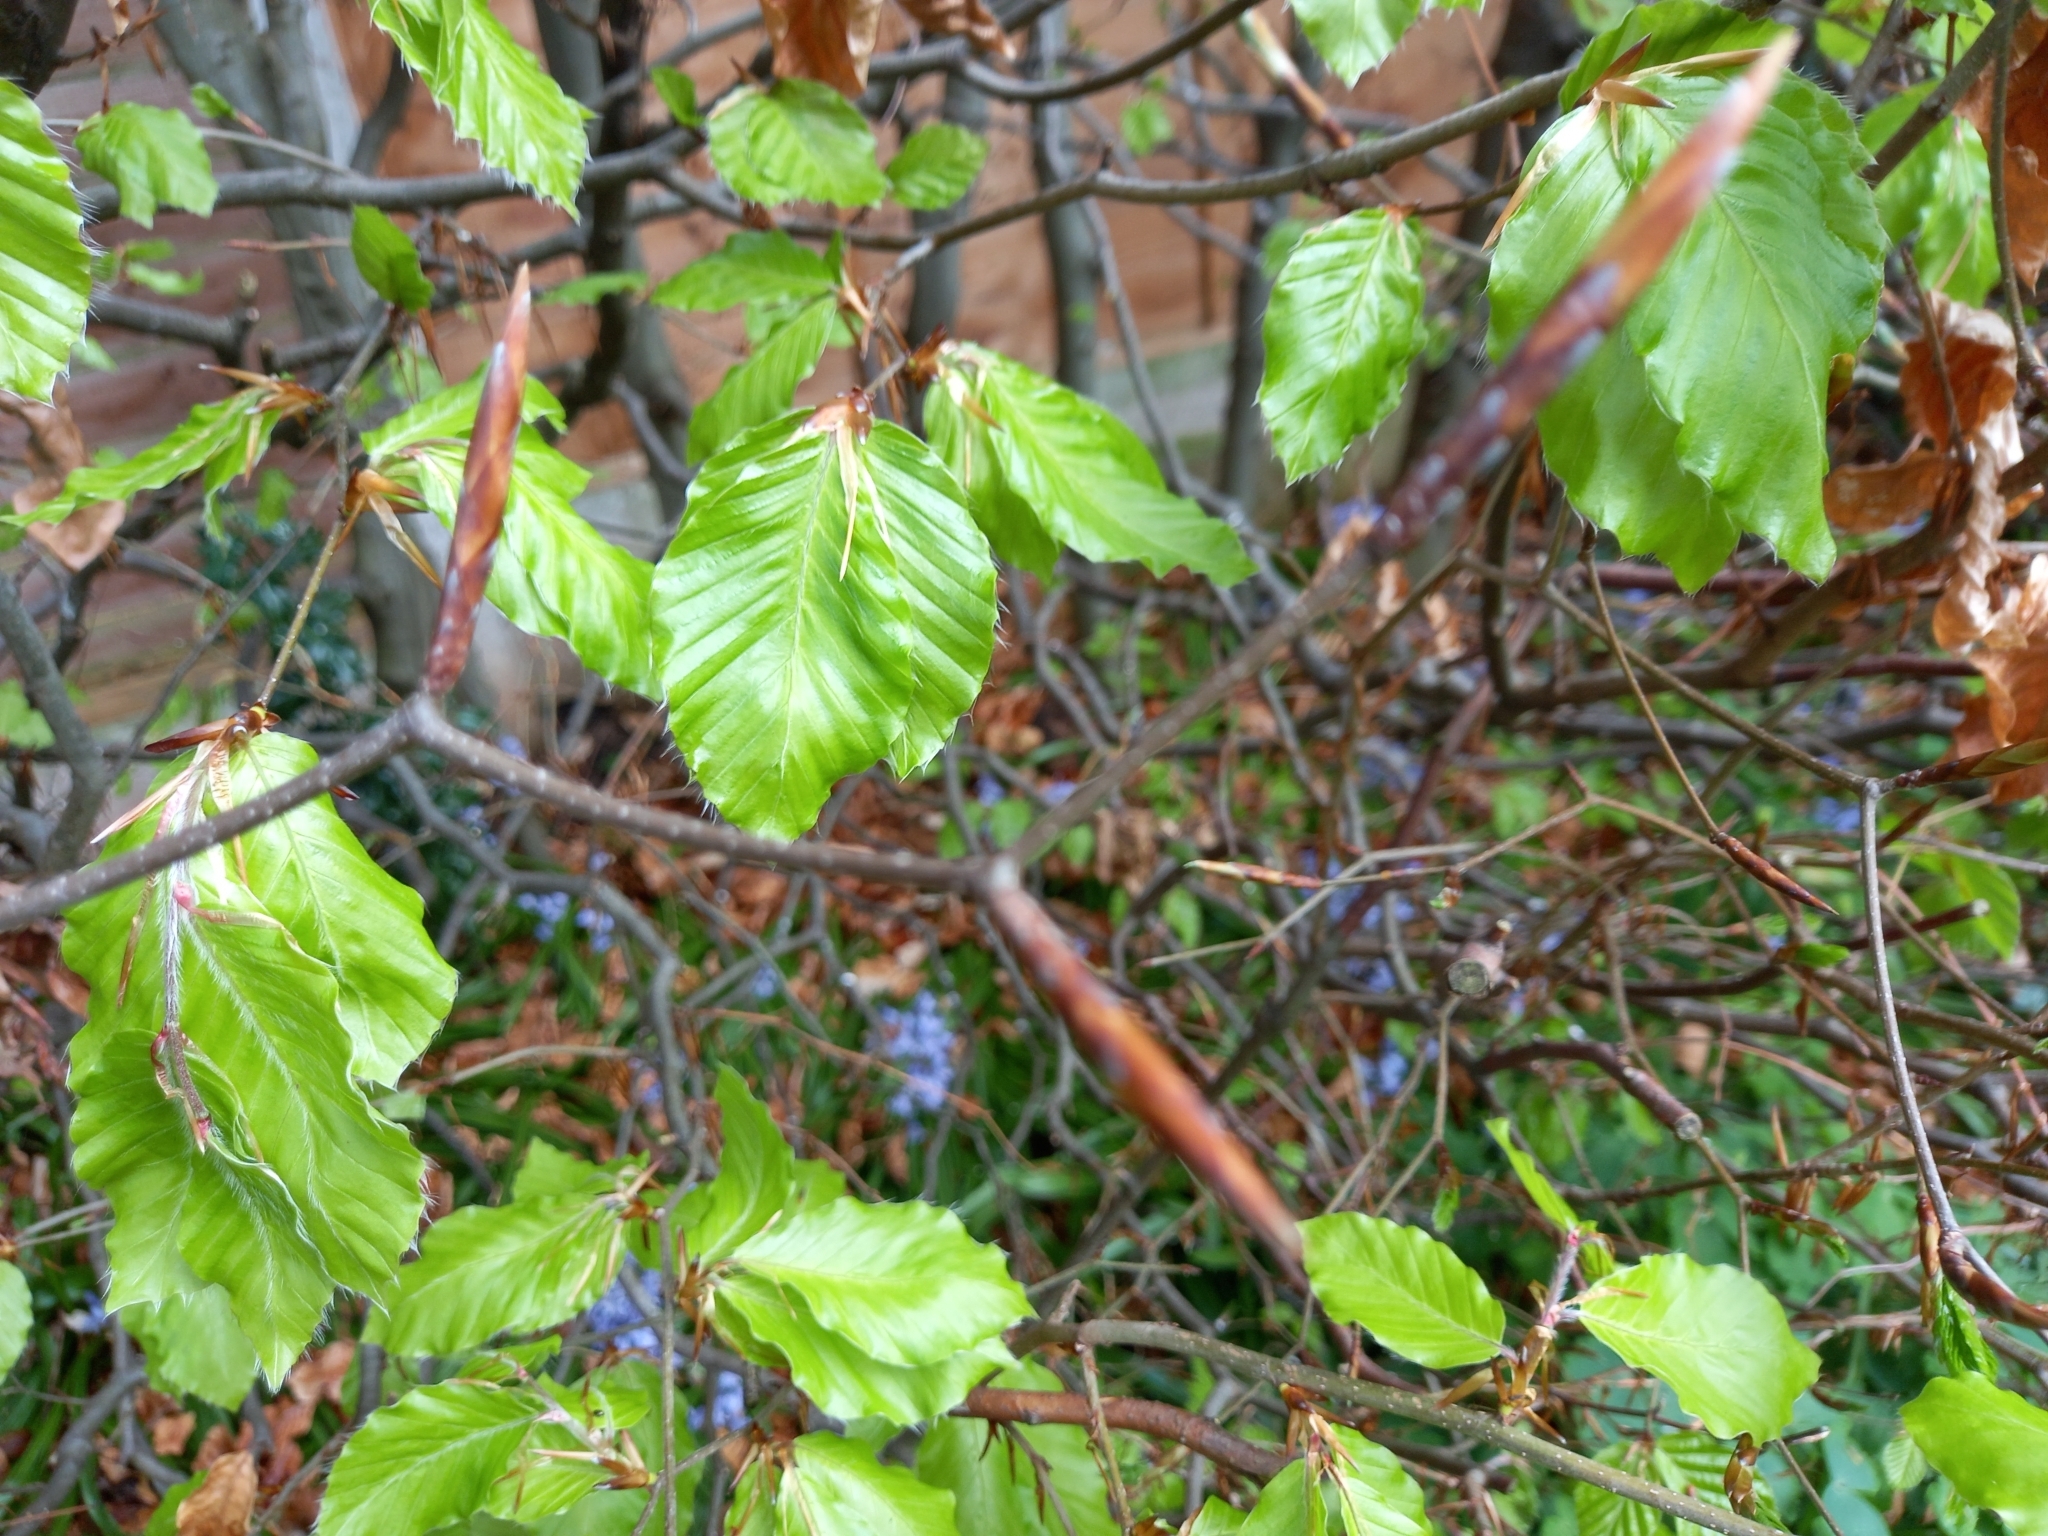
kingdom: Plantae
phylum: Tracheophyta
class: Magnoliopsida
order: Fagales
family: Fagaceae
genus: Fagus
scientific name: Fagus sylvatica
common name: Beech
